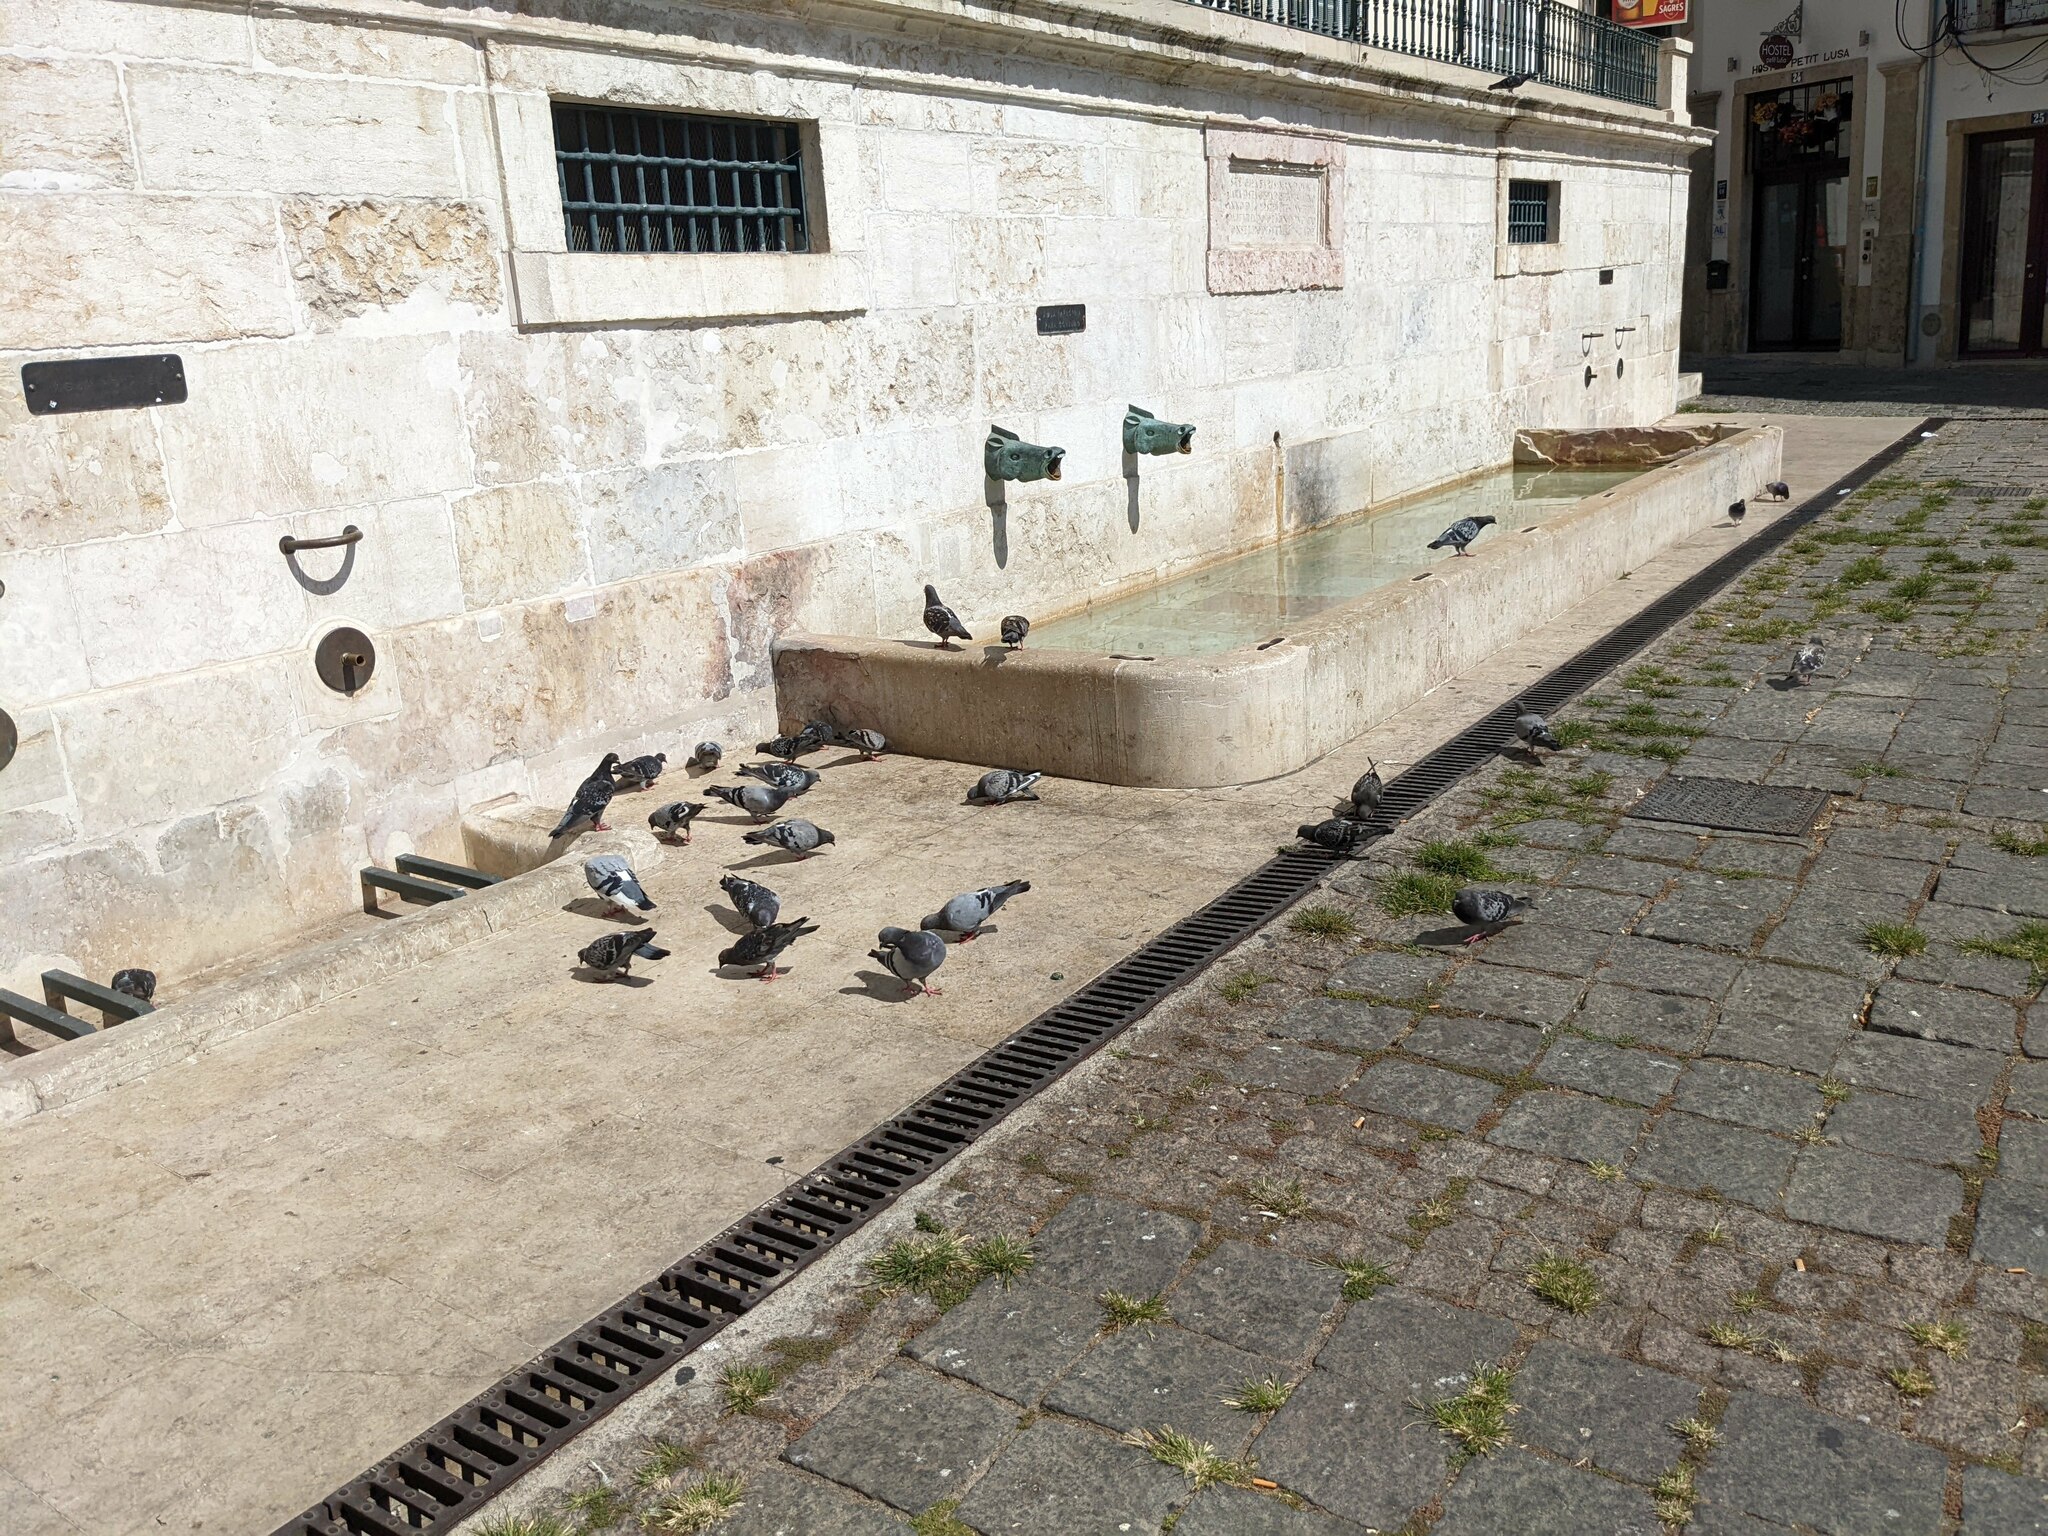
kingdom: Animalia
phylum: Chordata
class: Aves
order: Columbiformes
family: Columbidae
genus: Columba
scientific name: Columba livia
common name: Rock pigeon
